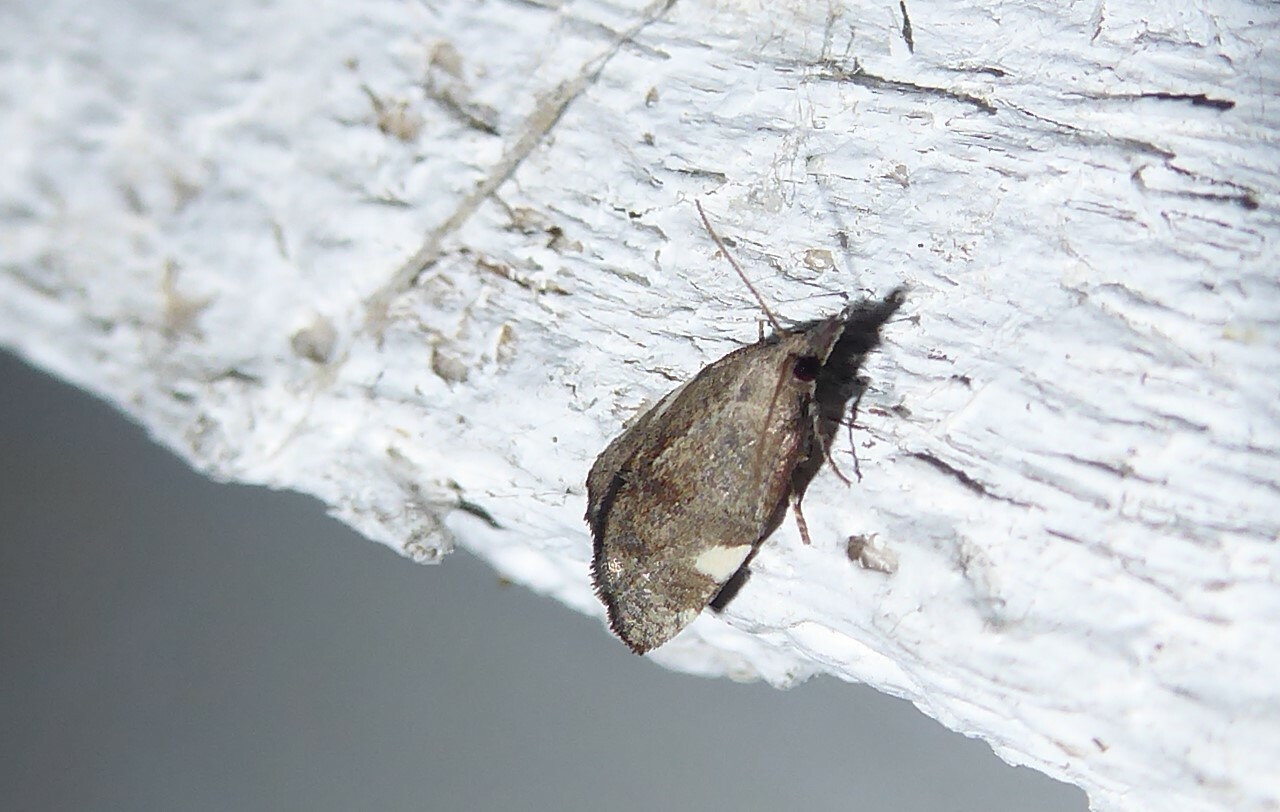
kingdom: Animalia
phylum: Arthropoda
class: Insecta
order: Lepidoptera
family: Tortricidae
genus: Catamacta
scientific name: Catamacta gavisana
